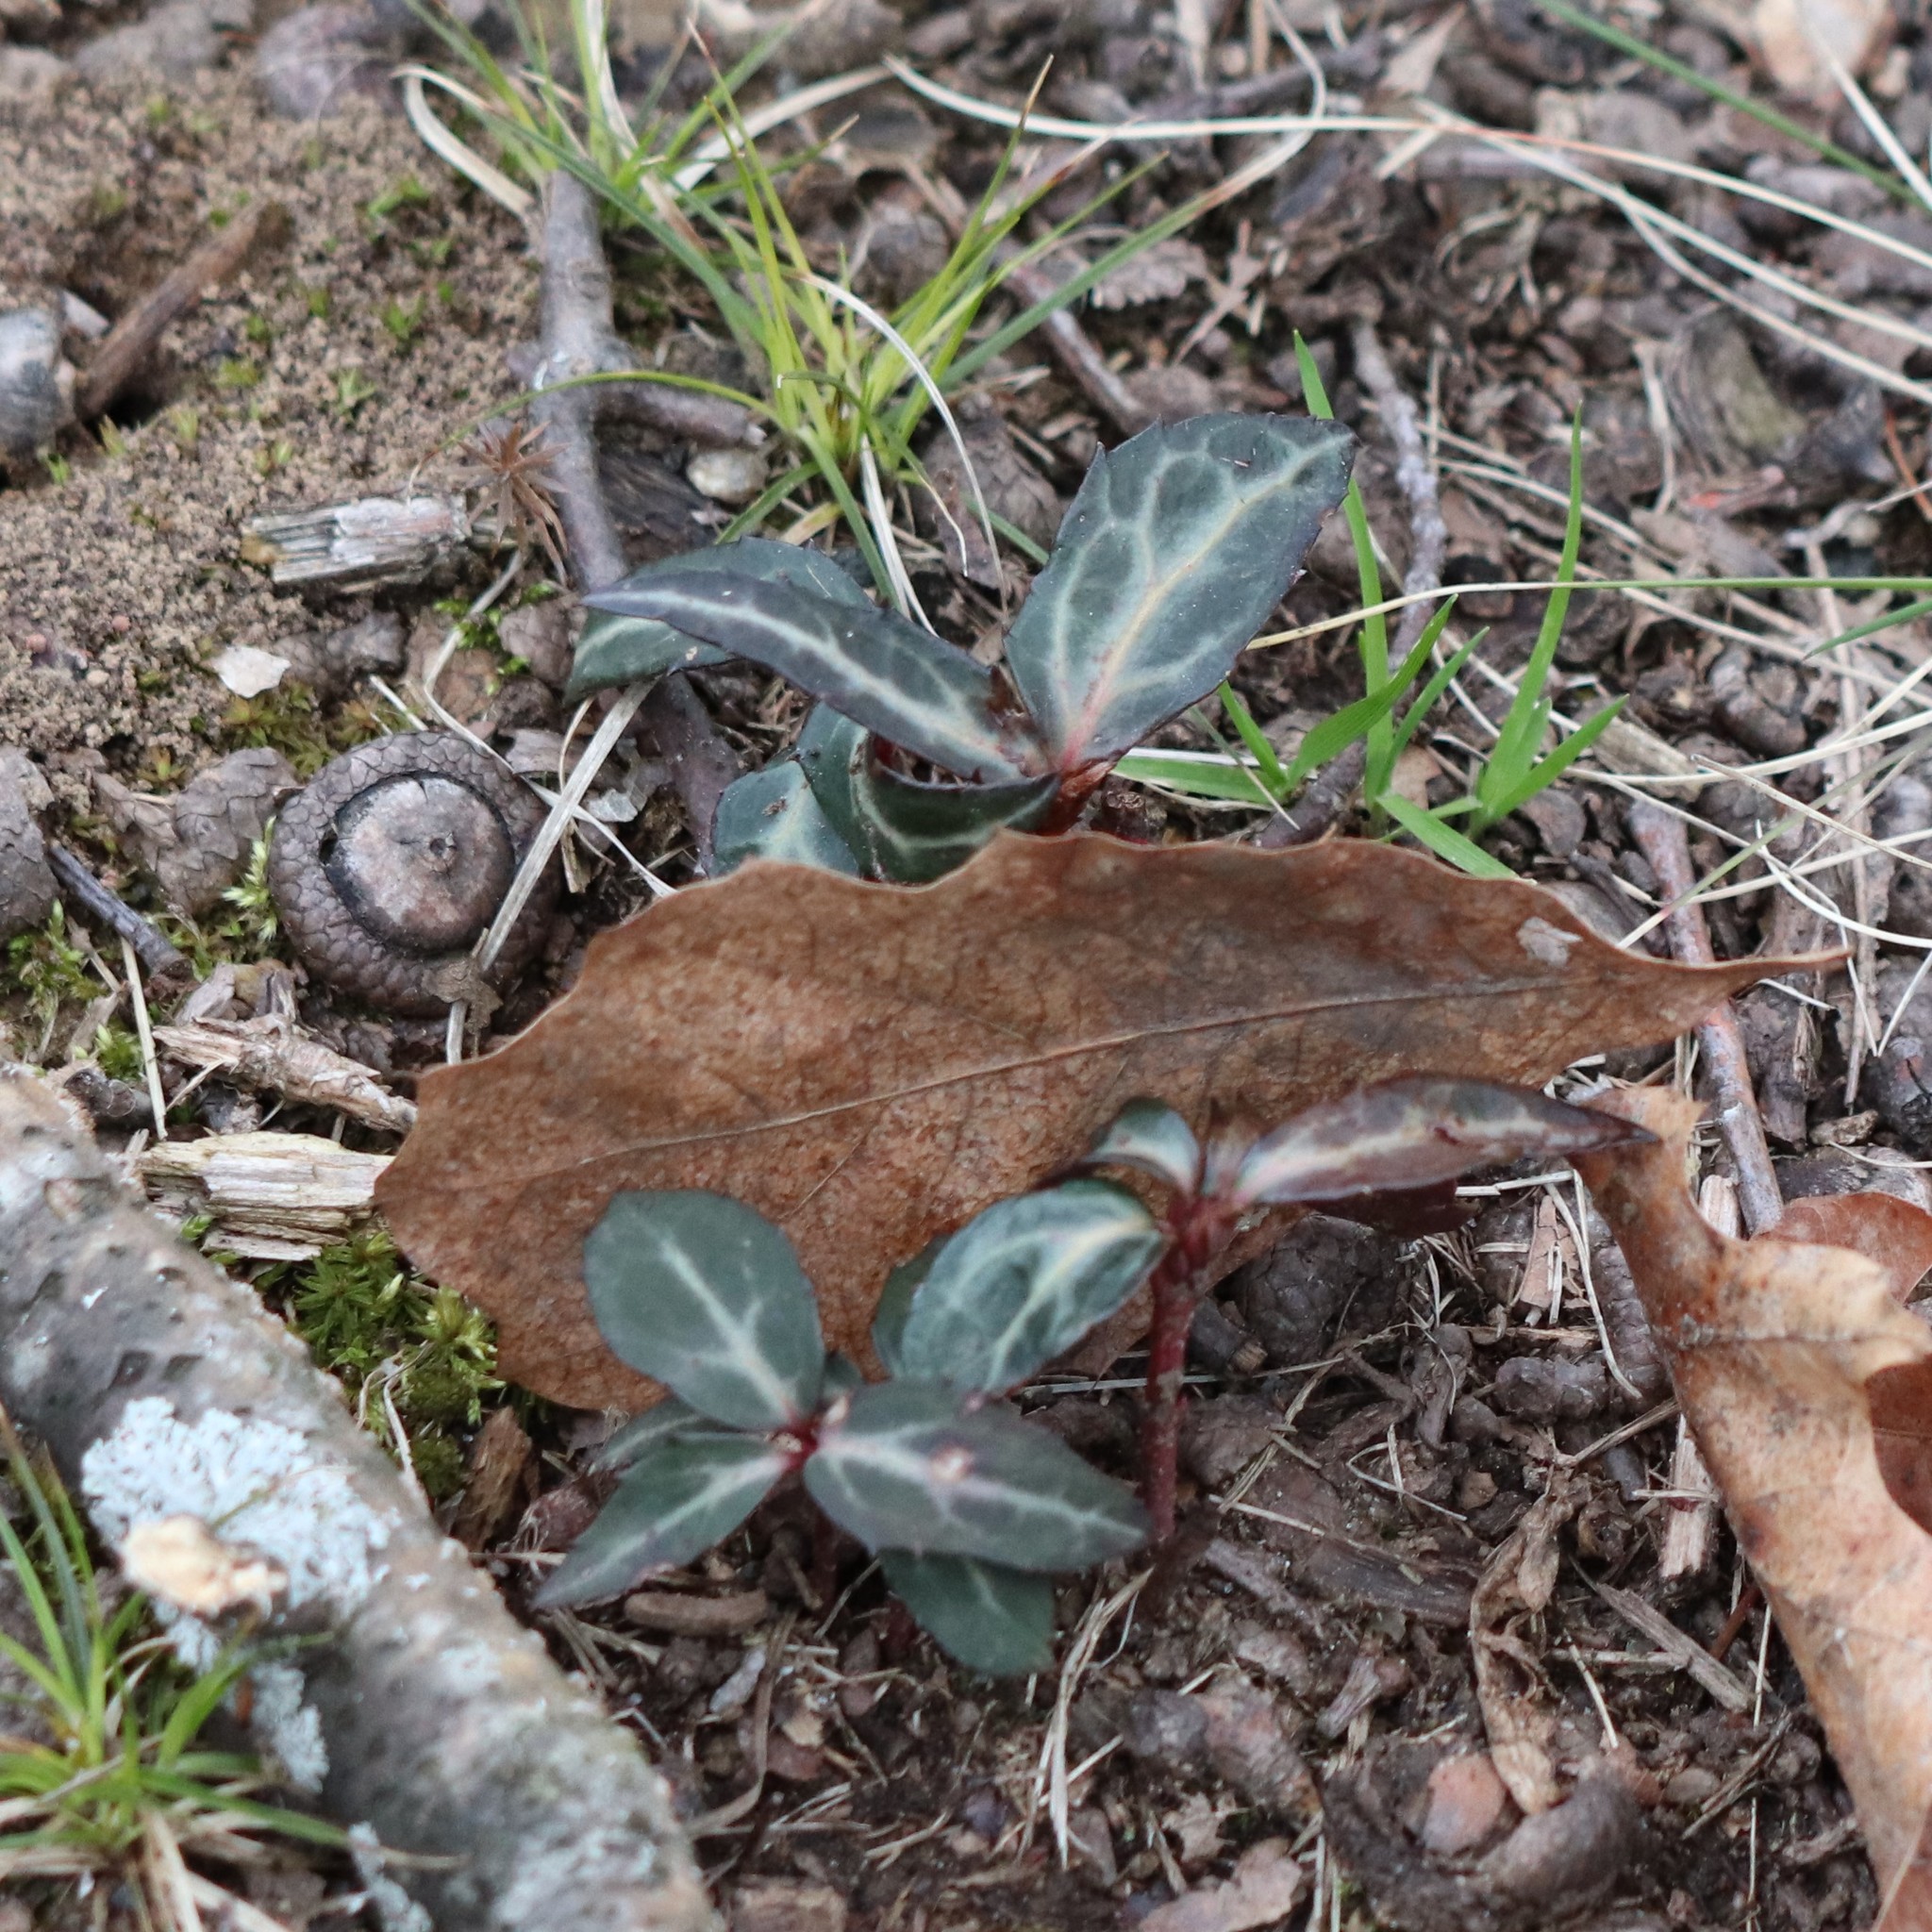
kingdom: Plantae
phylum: Tracheophyta
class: Magnoliopsida
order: Ericales
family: Ericaceae
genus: Chimaphila
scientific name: Chimaphila maculata
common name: Spotted pipsissewa
